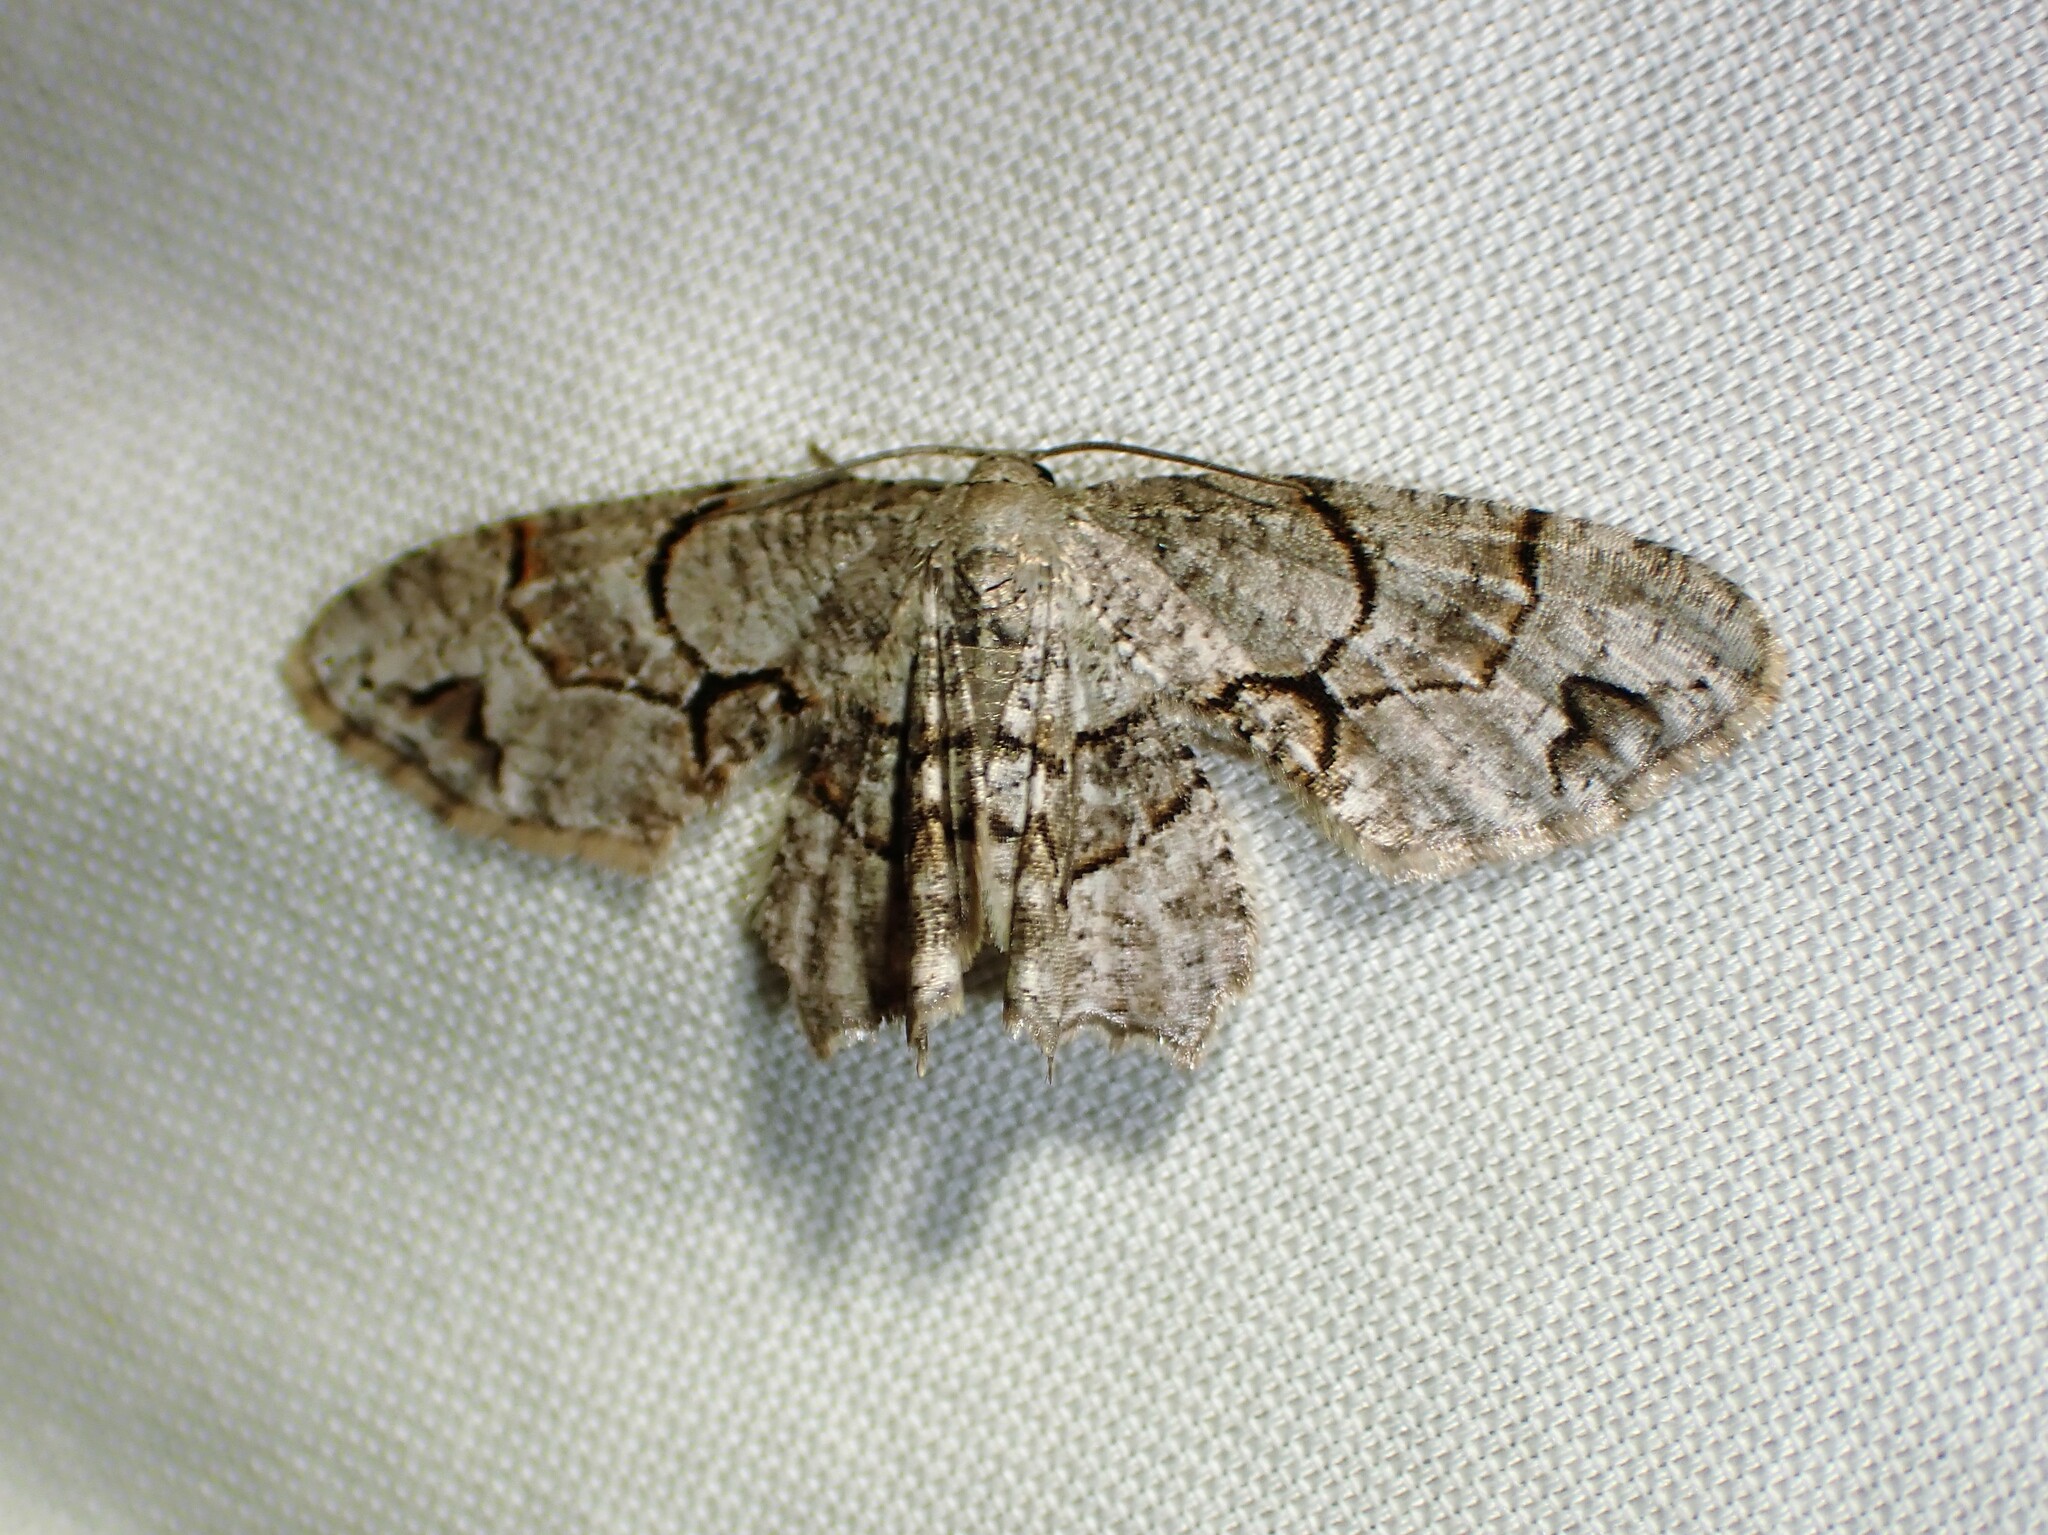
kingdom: Animalia
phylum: Arthropoda
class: Insecta
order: Lepidoptera
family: Uraniidae
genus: Epiplema
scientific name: Epiplema Callizzia amorata
